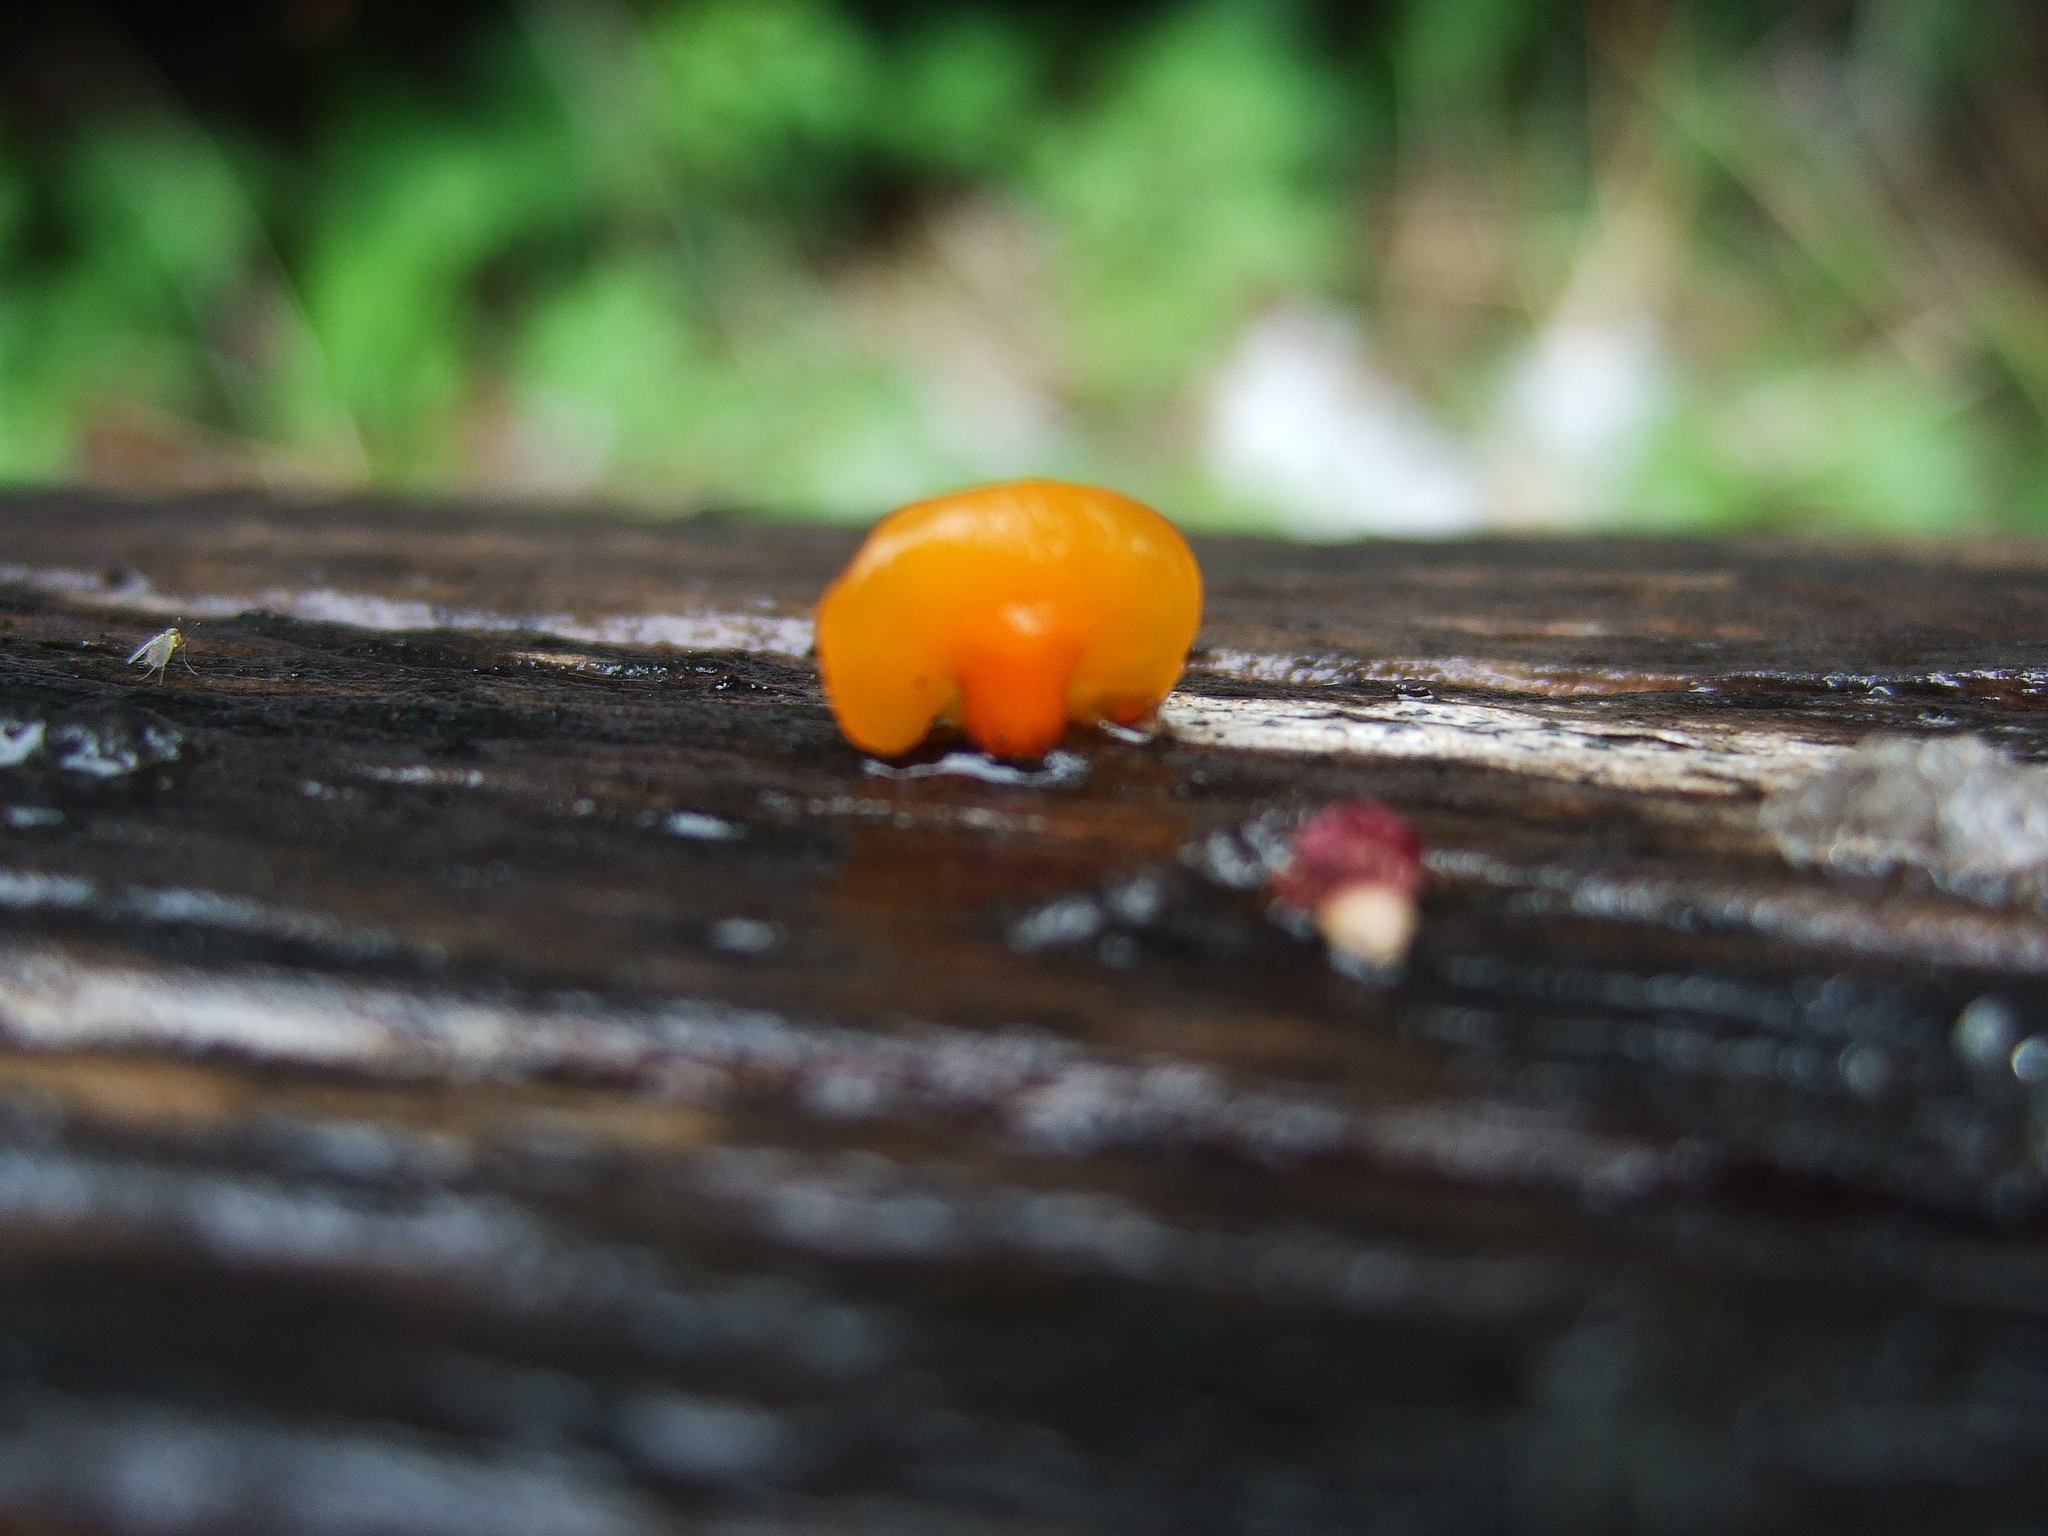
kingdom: Fungi
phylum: Basidiomycota
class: Dacrymycetes
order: Dacrymycetales
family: Dacrymycetaceae
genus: Guepiniopsis
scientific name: Guepiniopsis alpina
